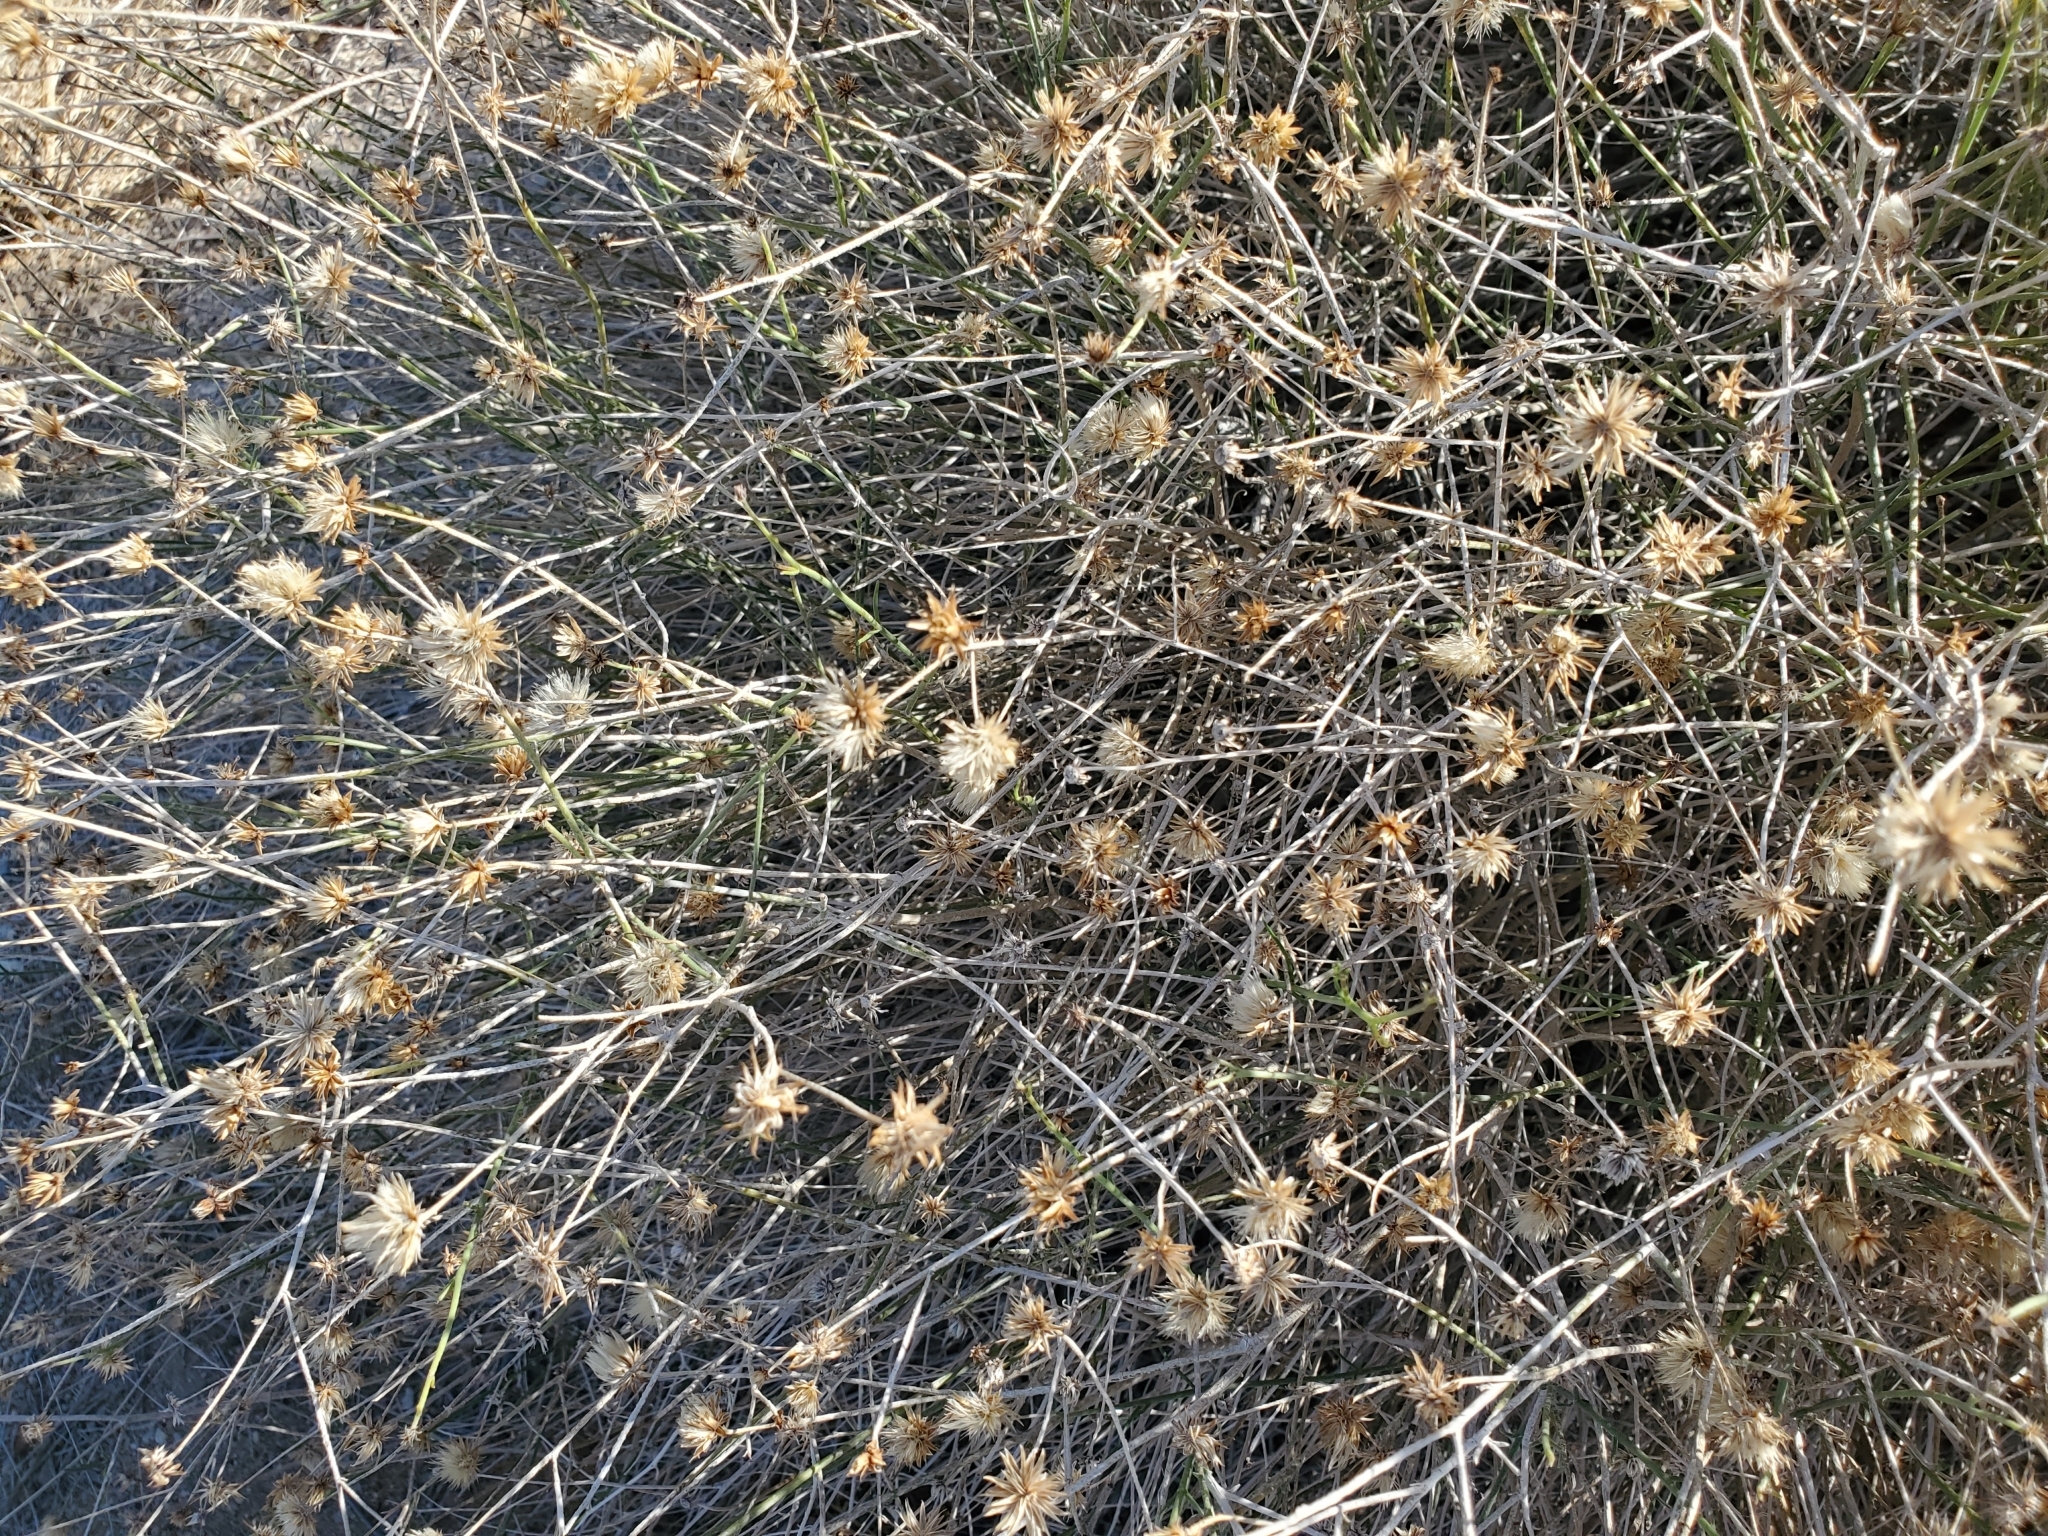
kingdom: Plantae
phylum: Tracheophyta
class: Magnoliopsida
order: Asterales
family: Asteraceae
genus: Bebbia
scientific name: Bebbia juncea
